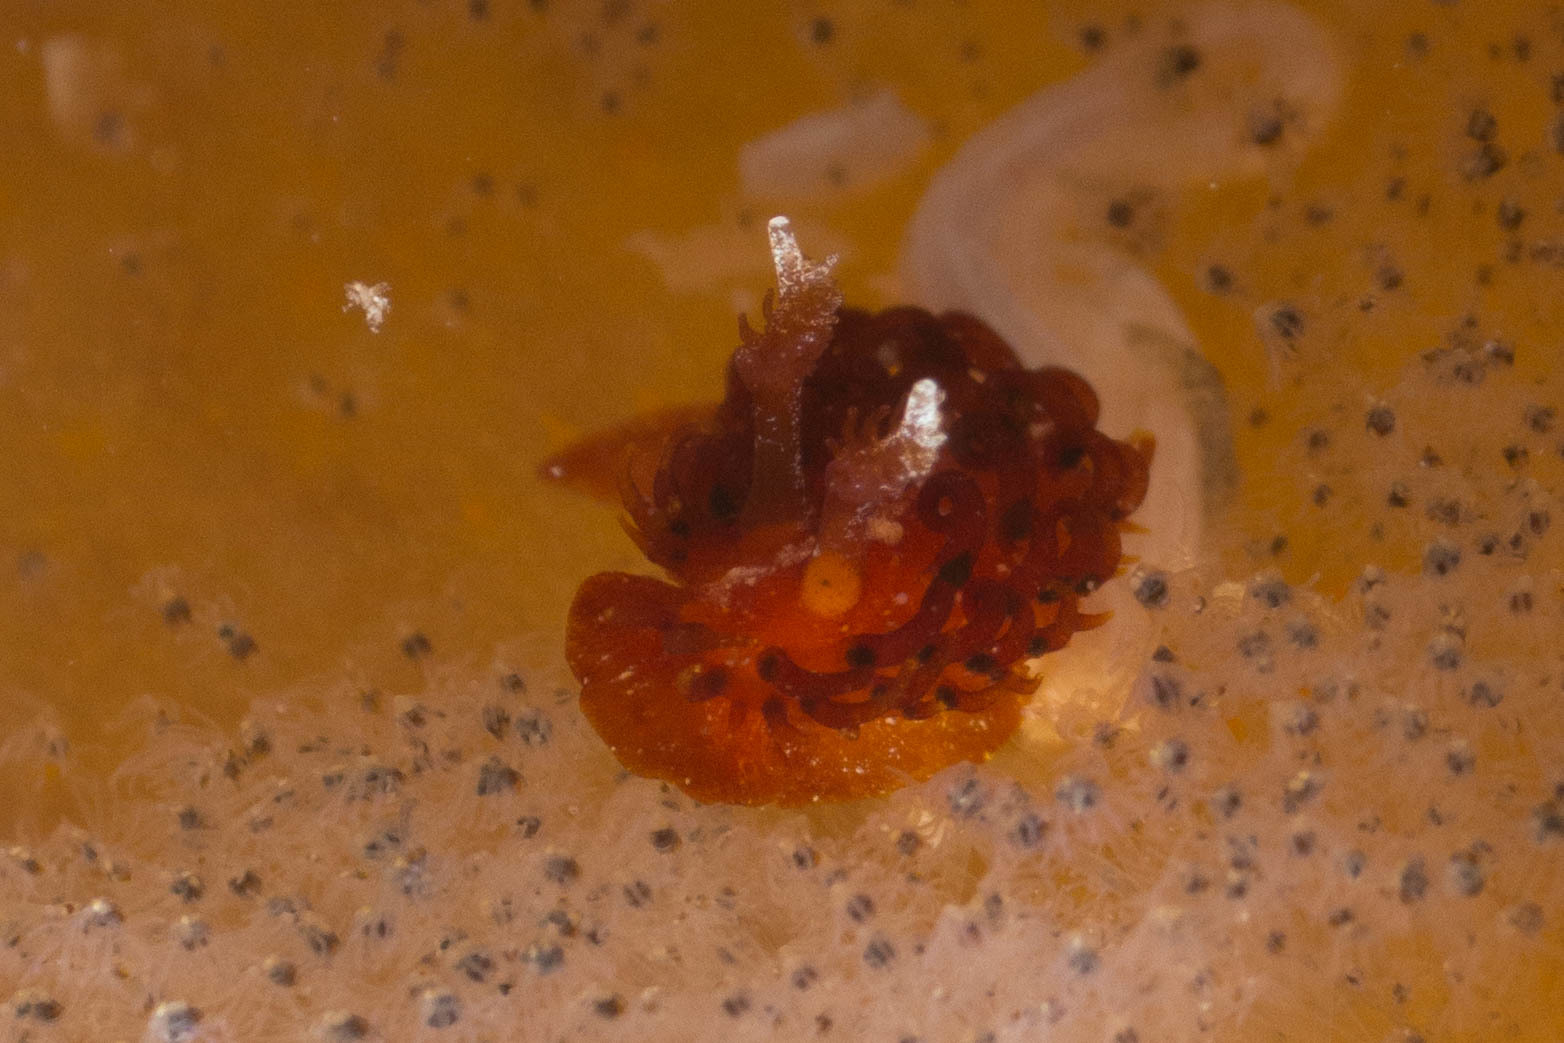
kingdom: Animalia
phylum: Mollusca
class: Gastropoda
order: Nudibranchia
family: Madrellidae
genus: Madrella
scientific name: Madrella ferruginosa
